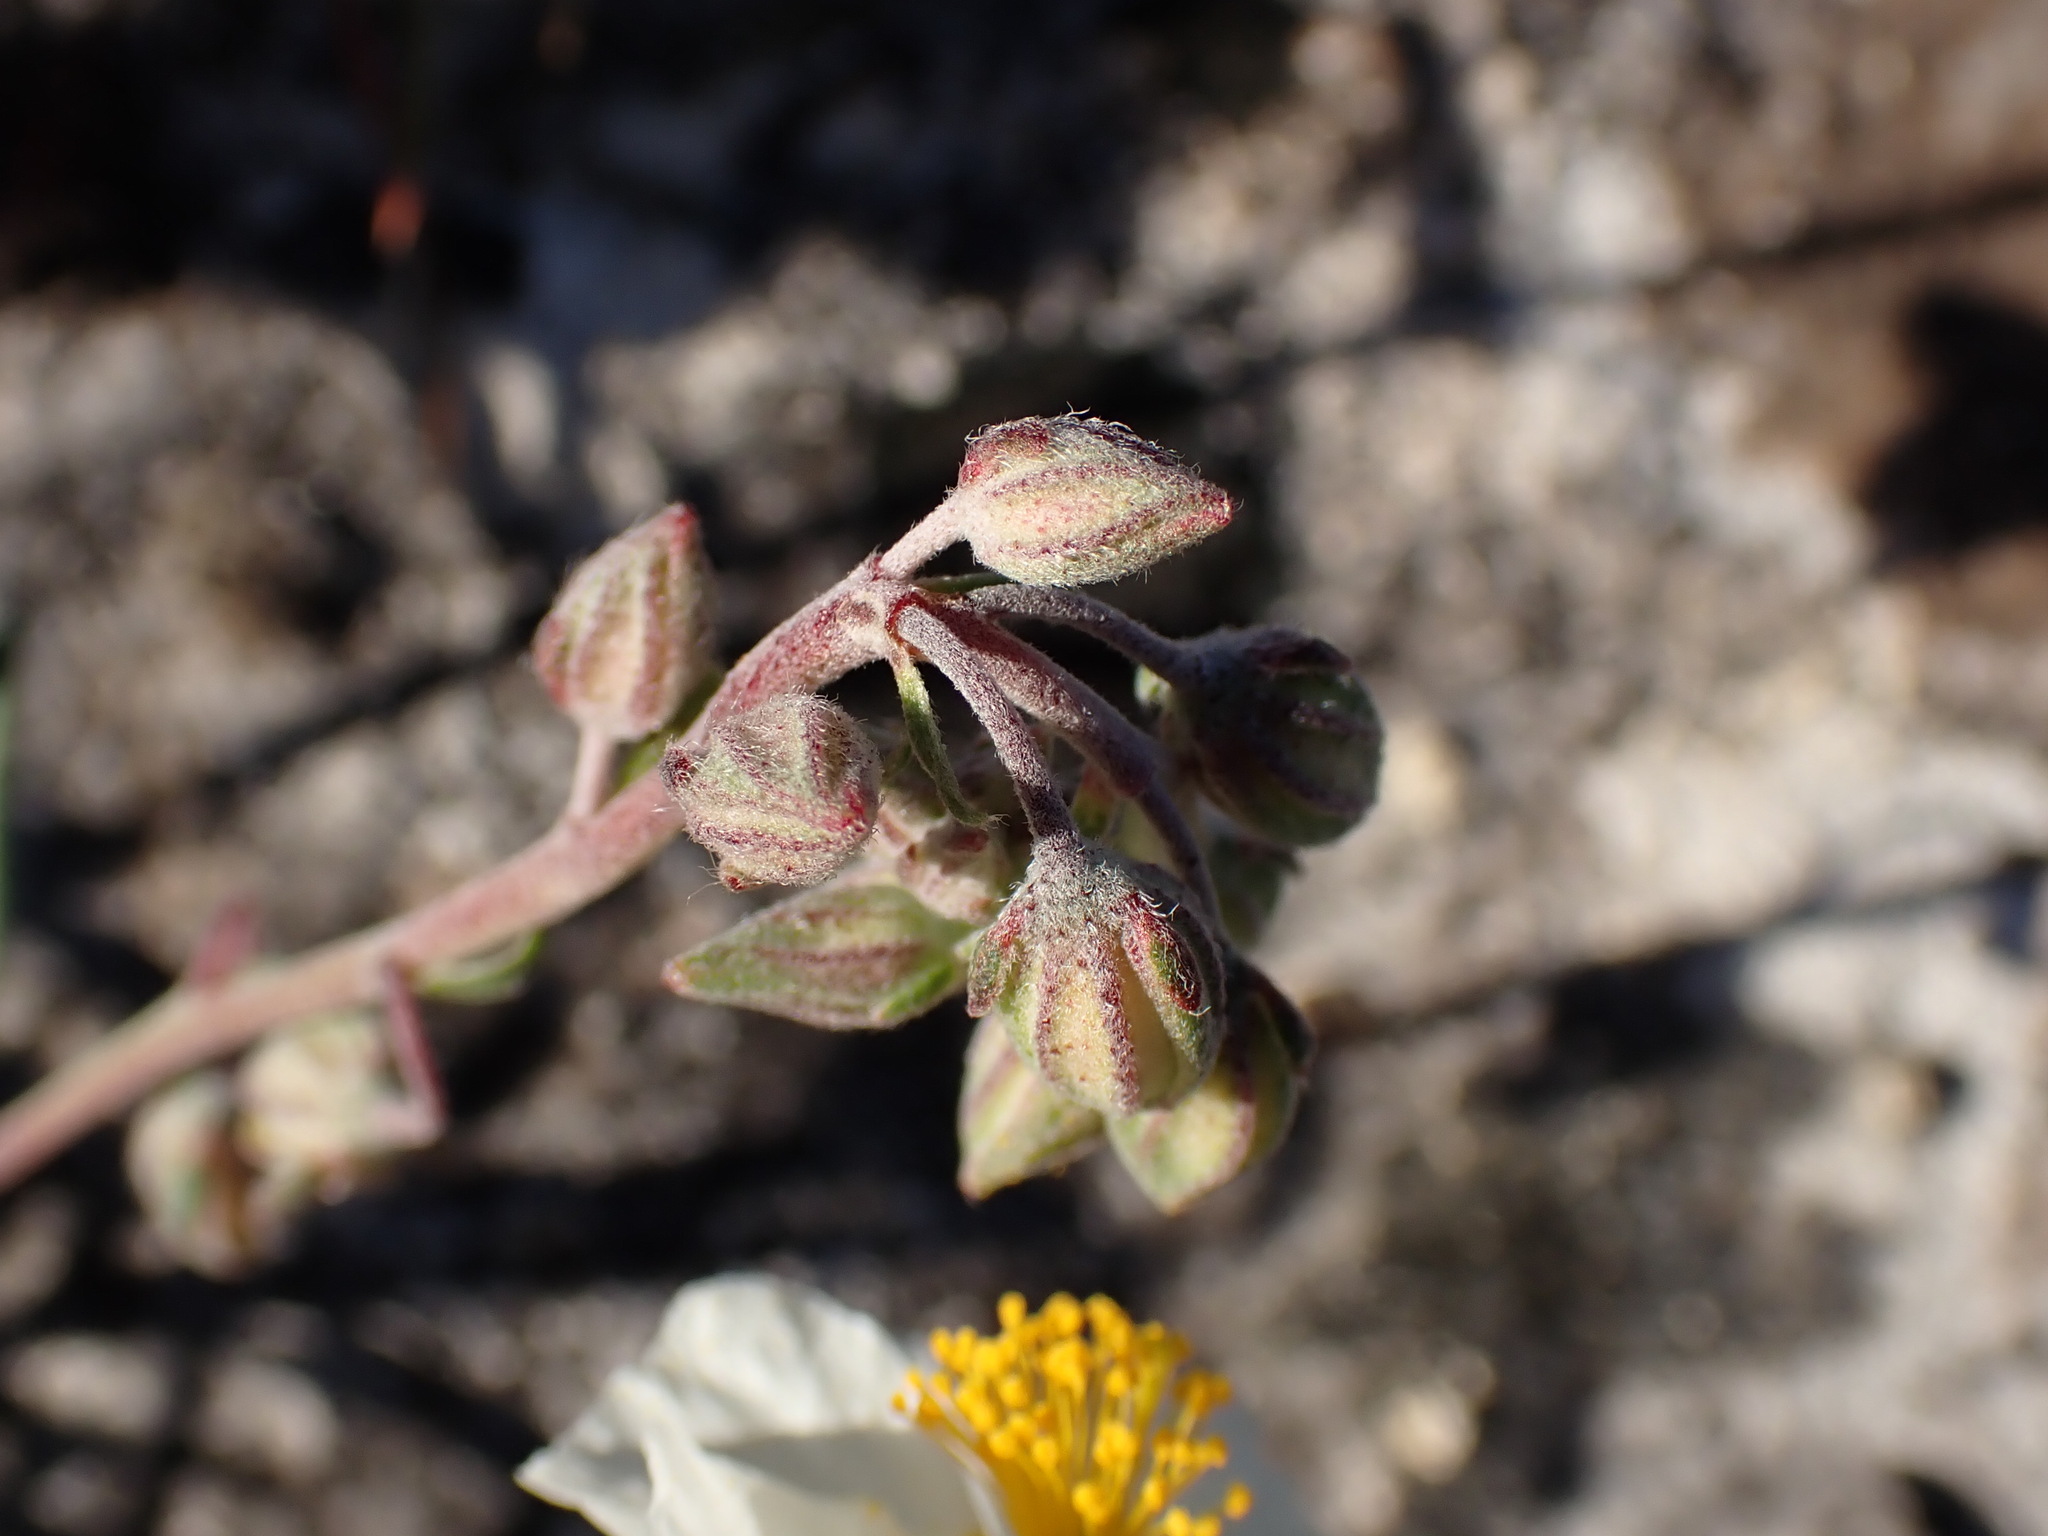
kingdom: Plantae
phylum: Tracheophyta
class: Magnoliopsida
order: Malvales
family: Cistaceae
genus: Helianthemum
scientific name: Helianthemum apenninum
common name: White rock-rose
